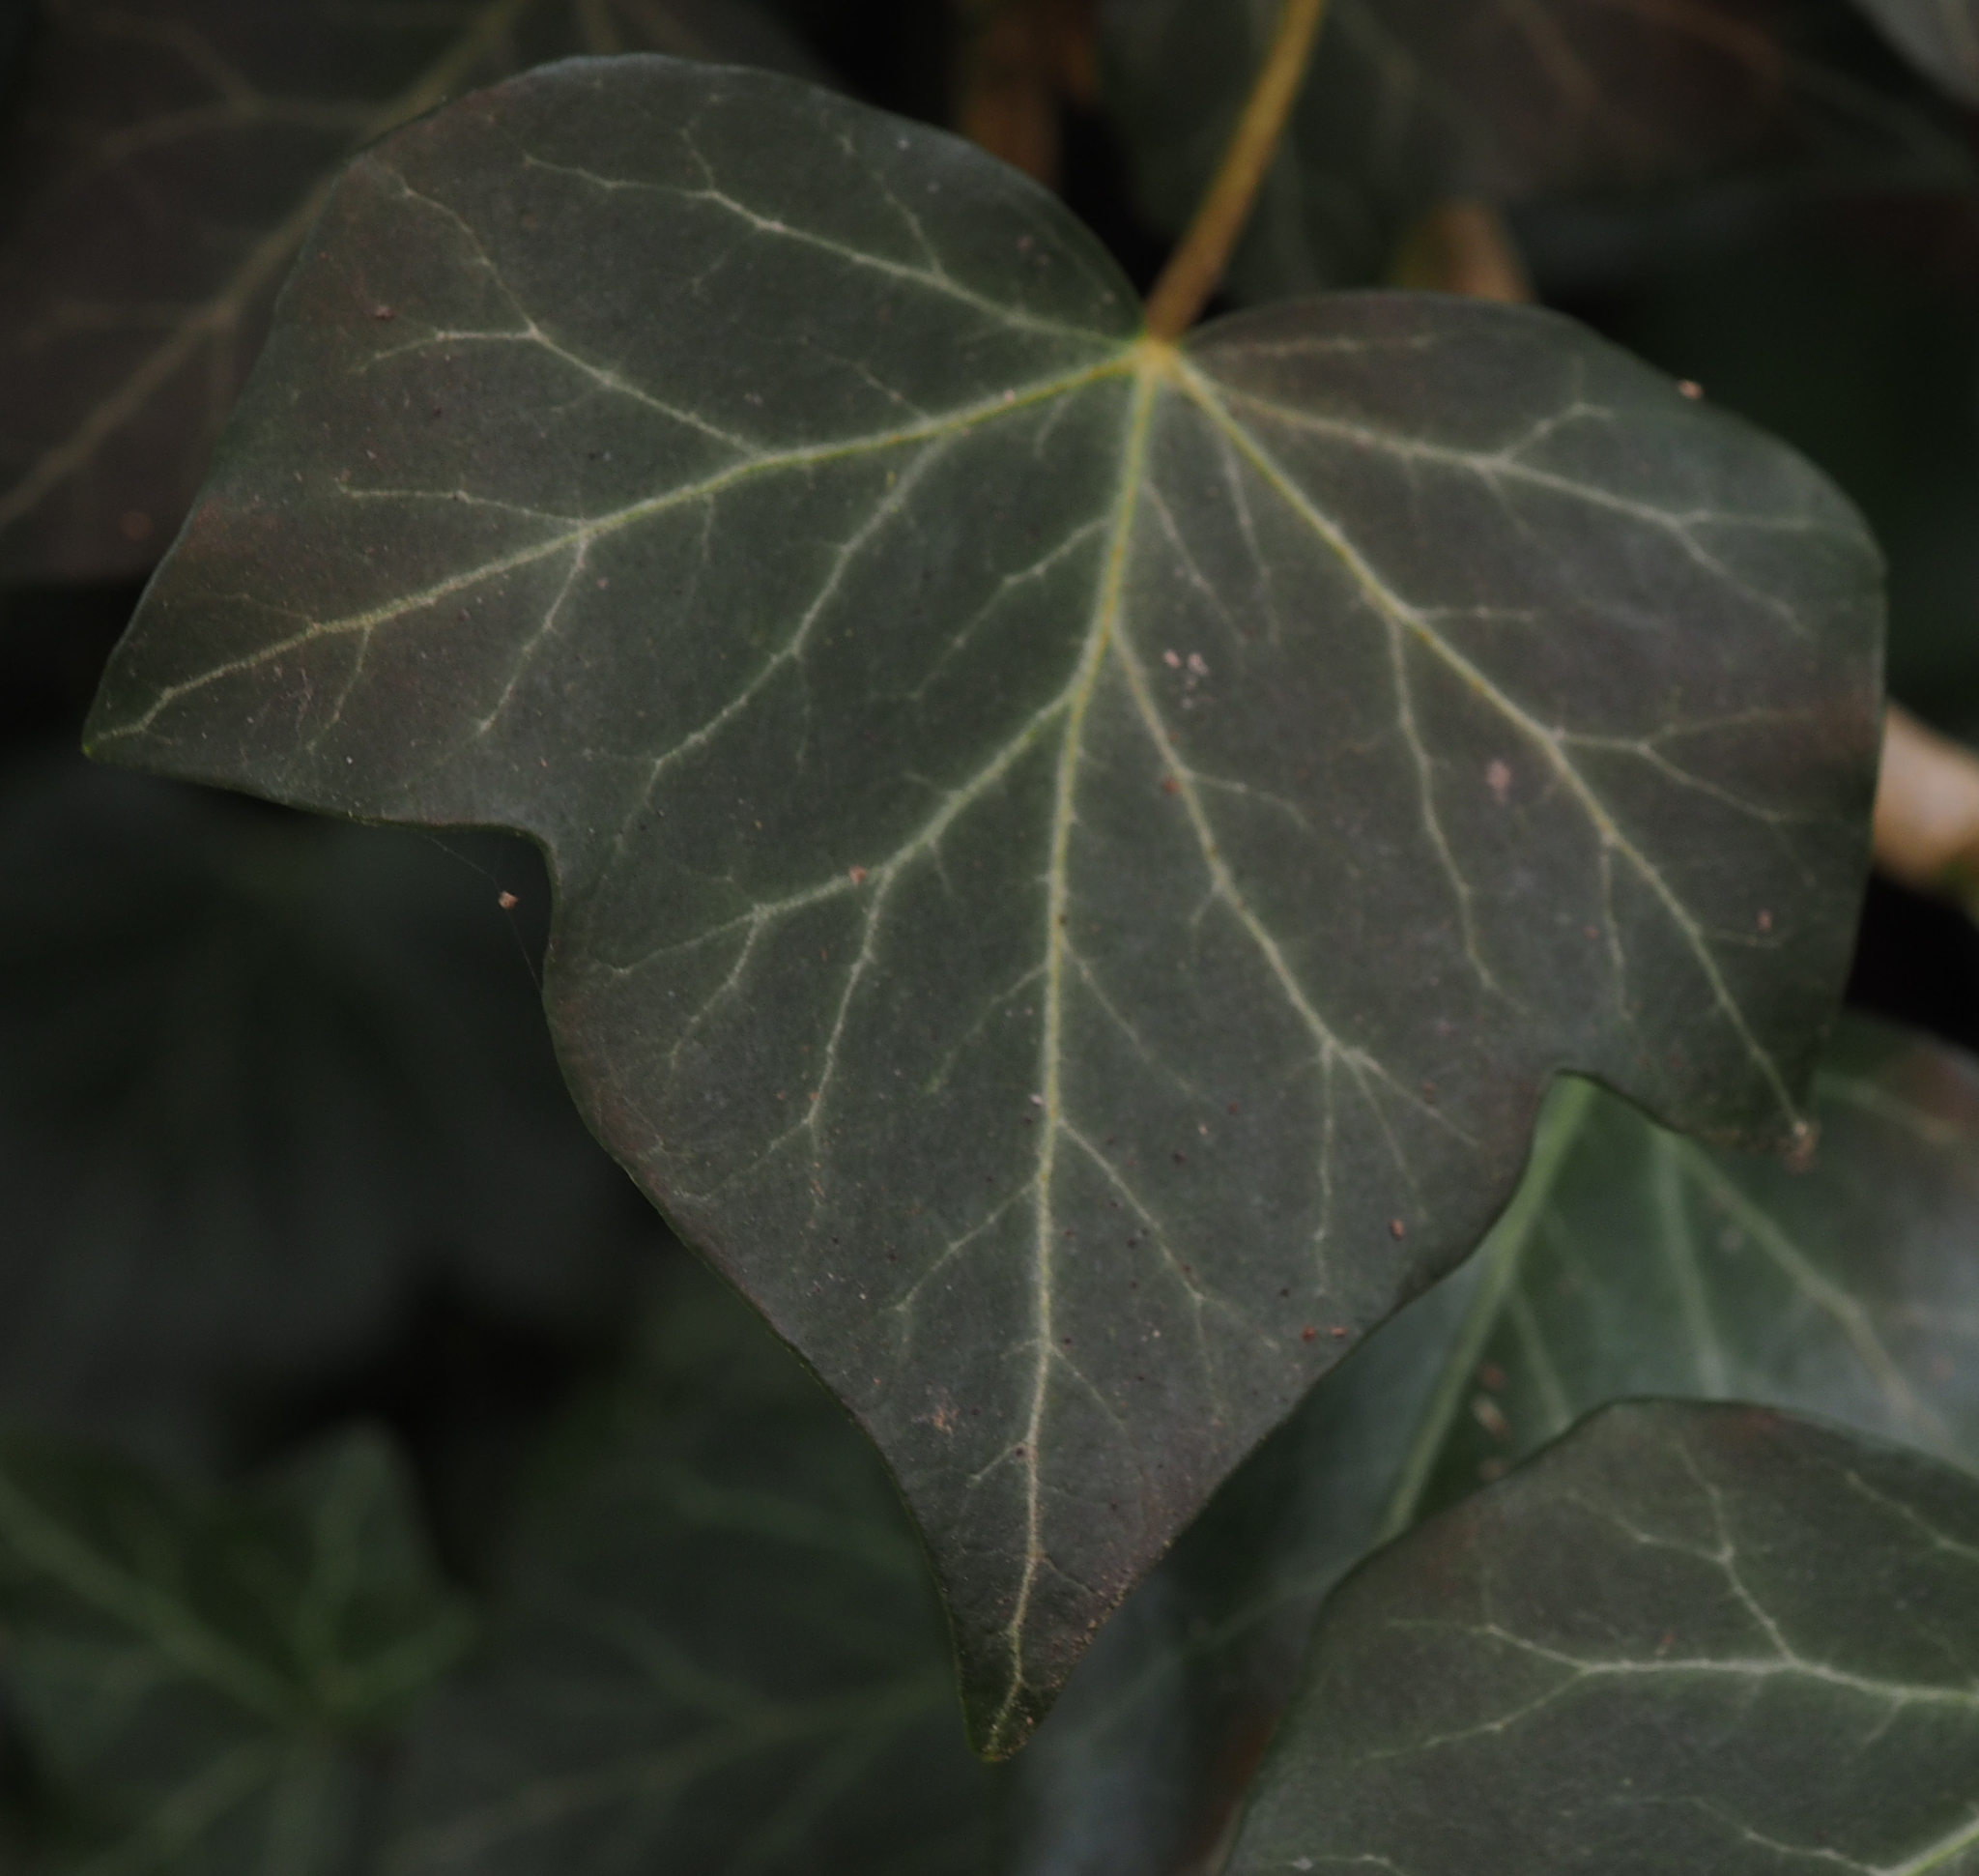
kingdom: Plantae
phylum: Tracheophyta
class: Magnoliopsida
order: Apiales
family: Araliaceae
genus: Hedera
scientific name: Hedera helix
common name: Ivy
